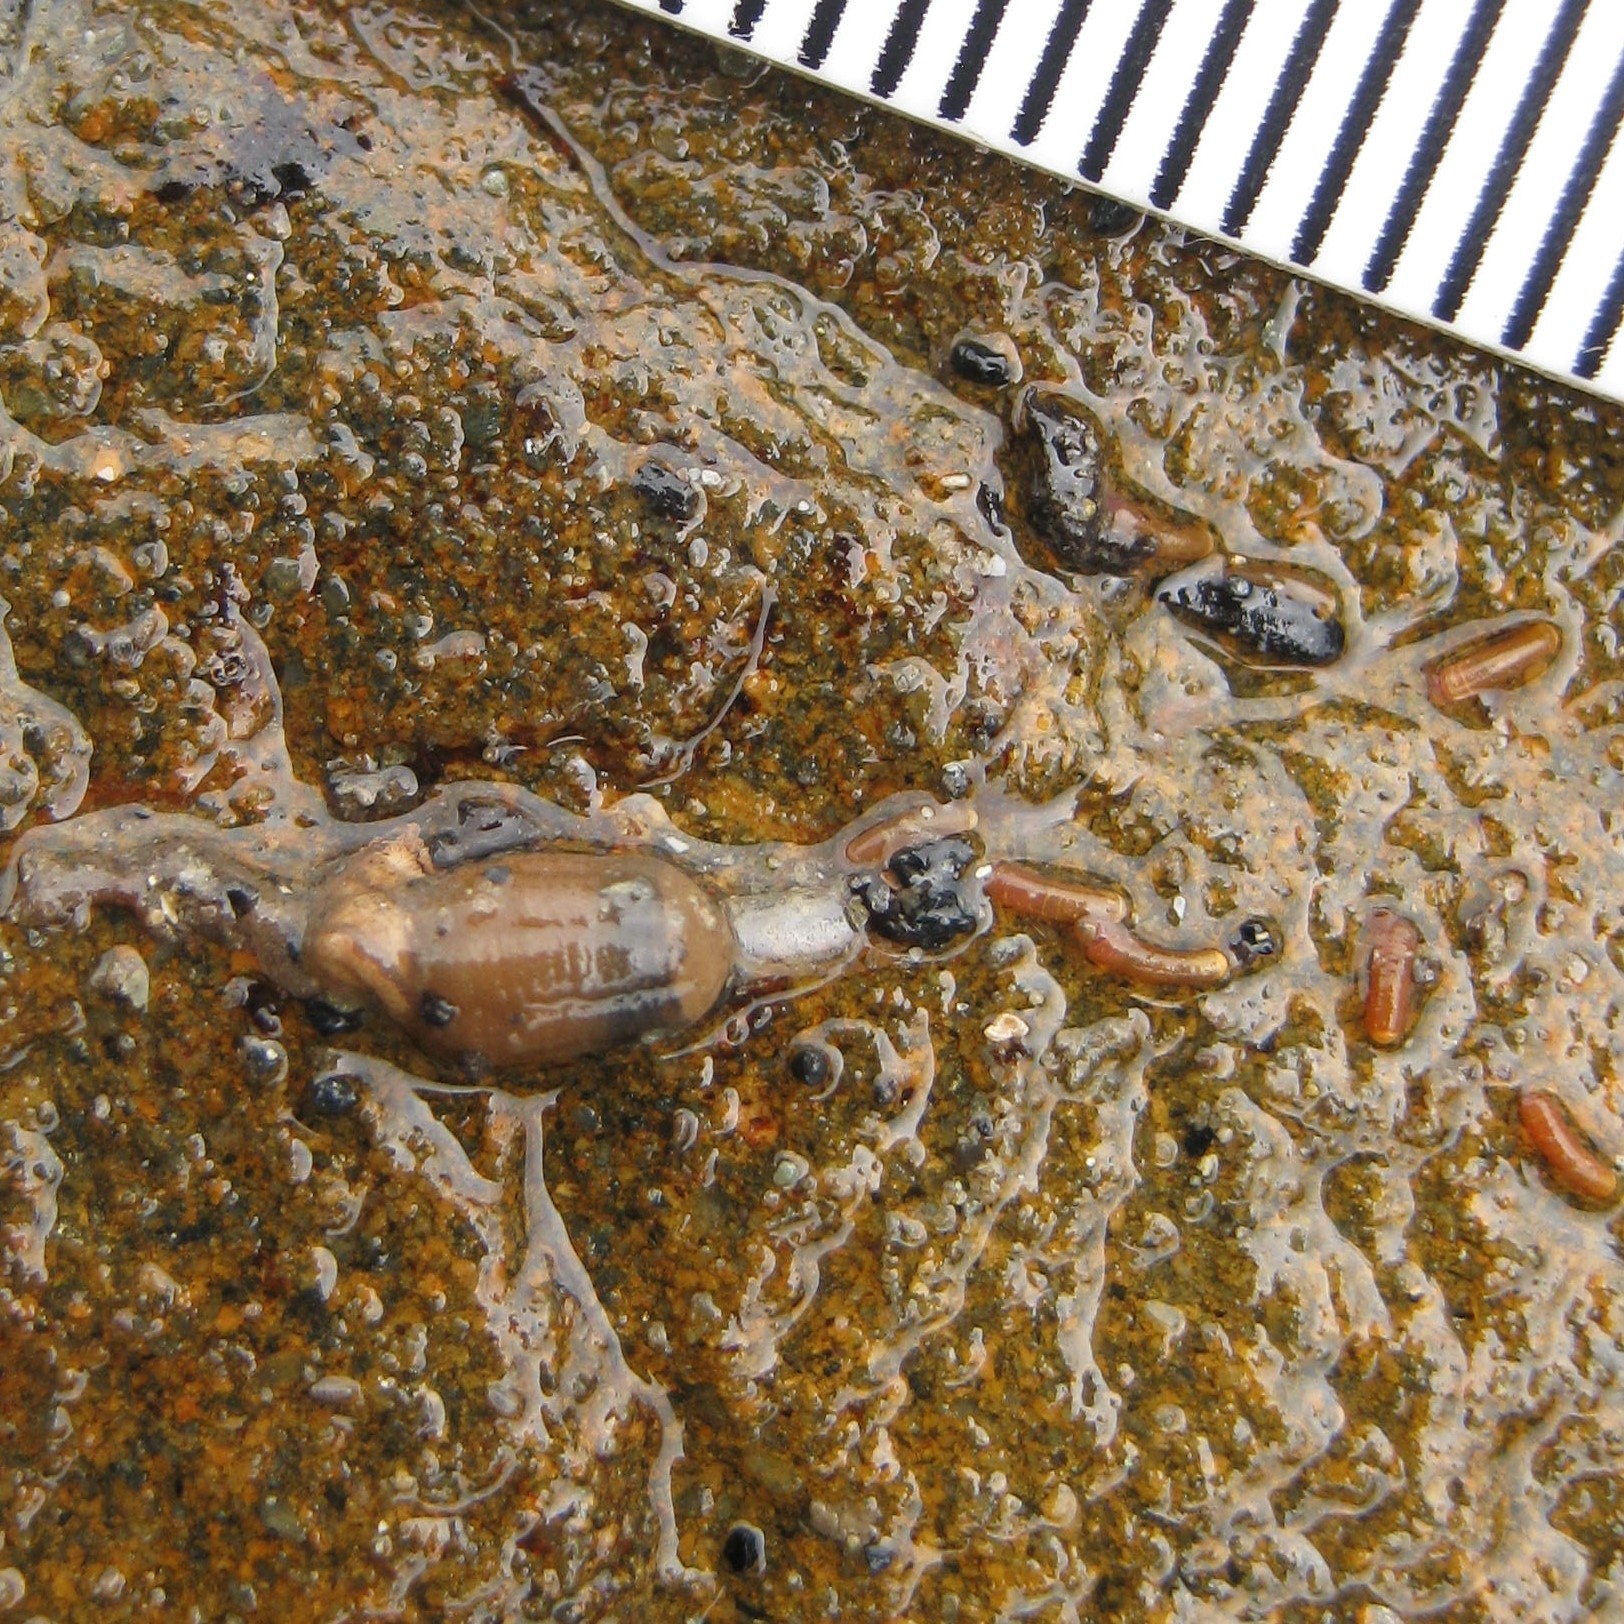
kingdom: Animalia
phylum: Mollusca
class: Gastropoda
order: Littorinimorpha
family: Caecidae
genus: Caecum
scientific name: Caecum
